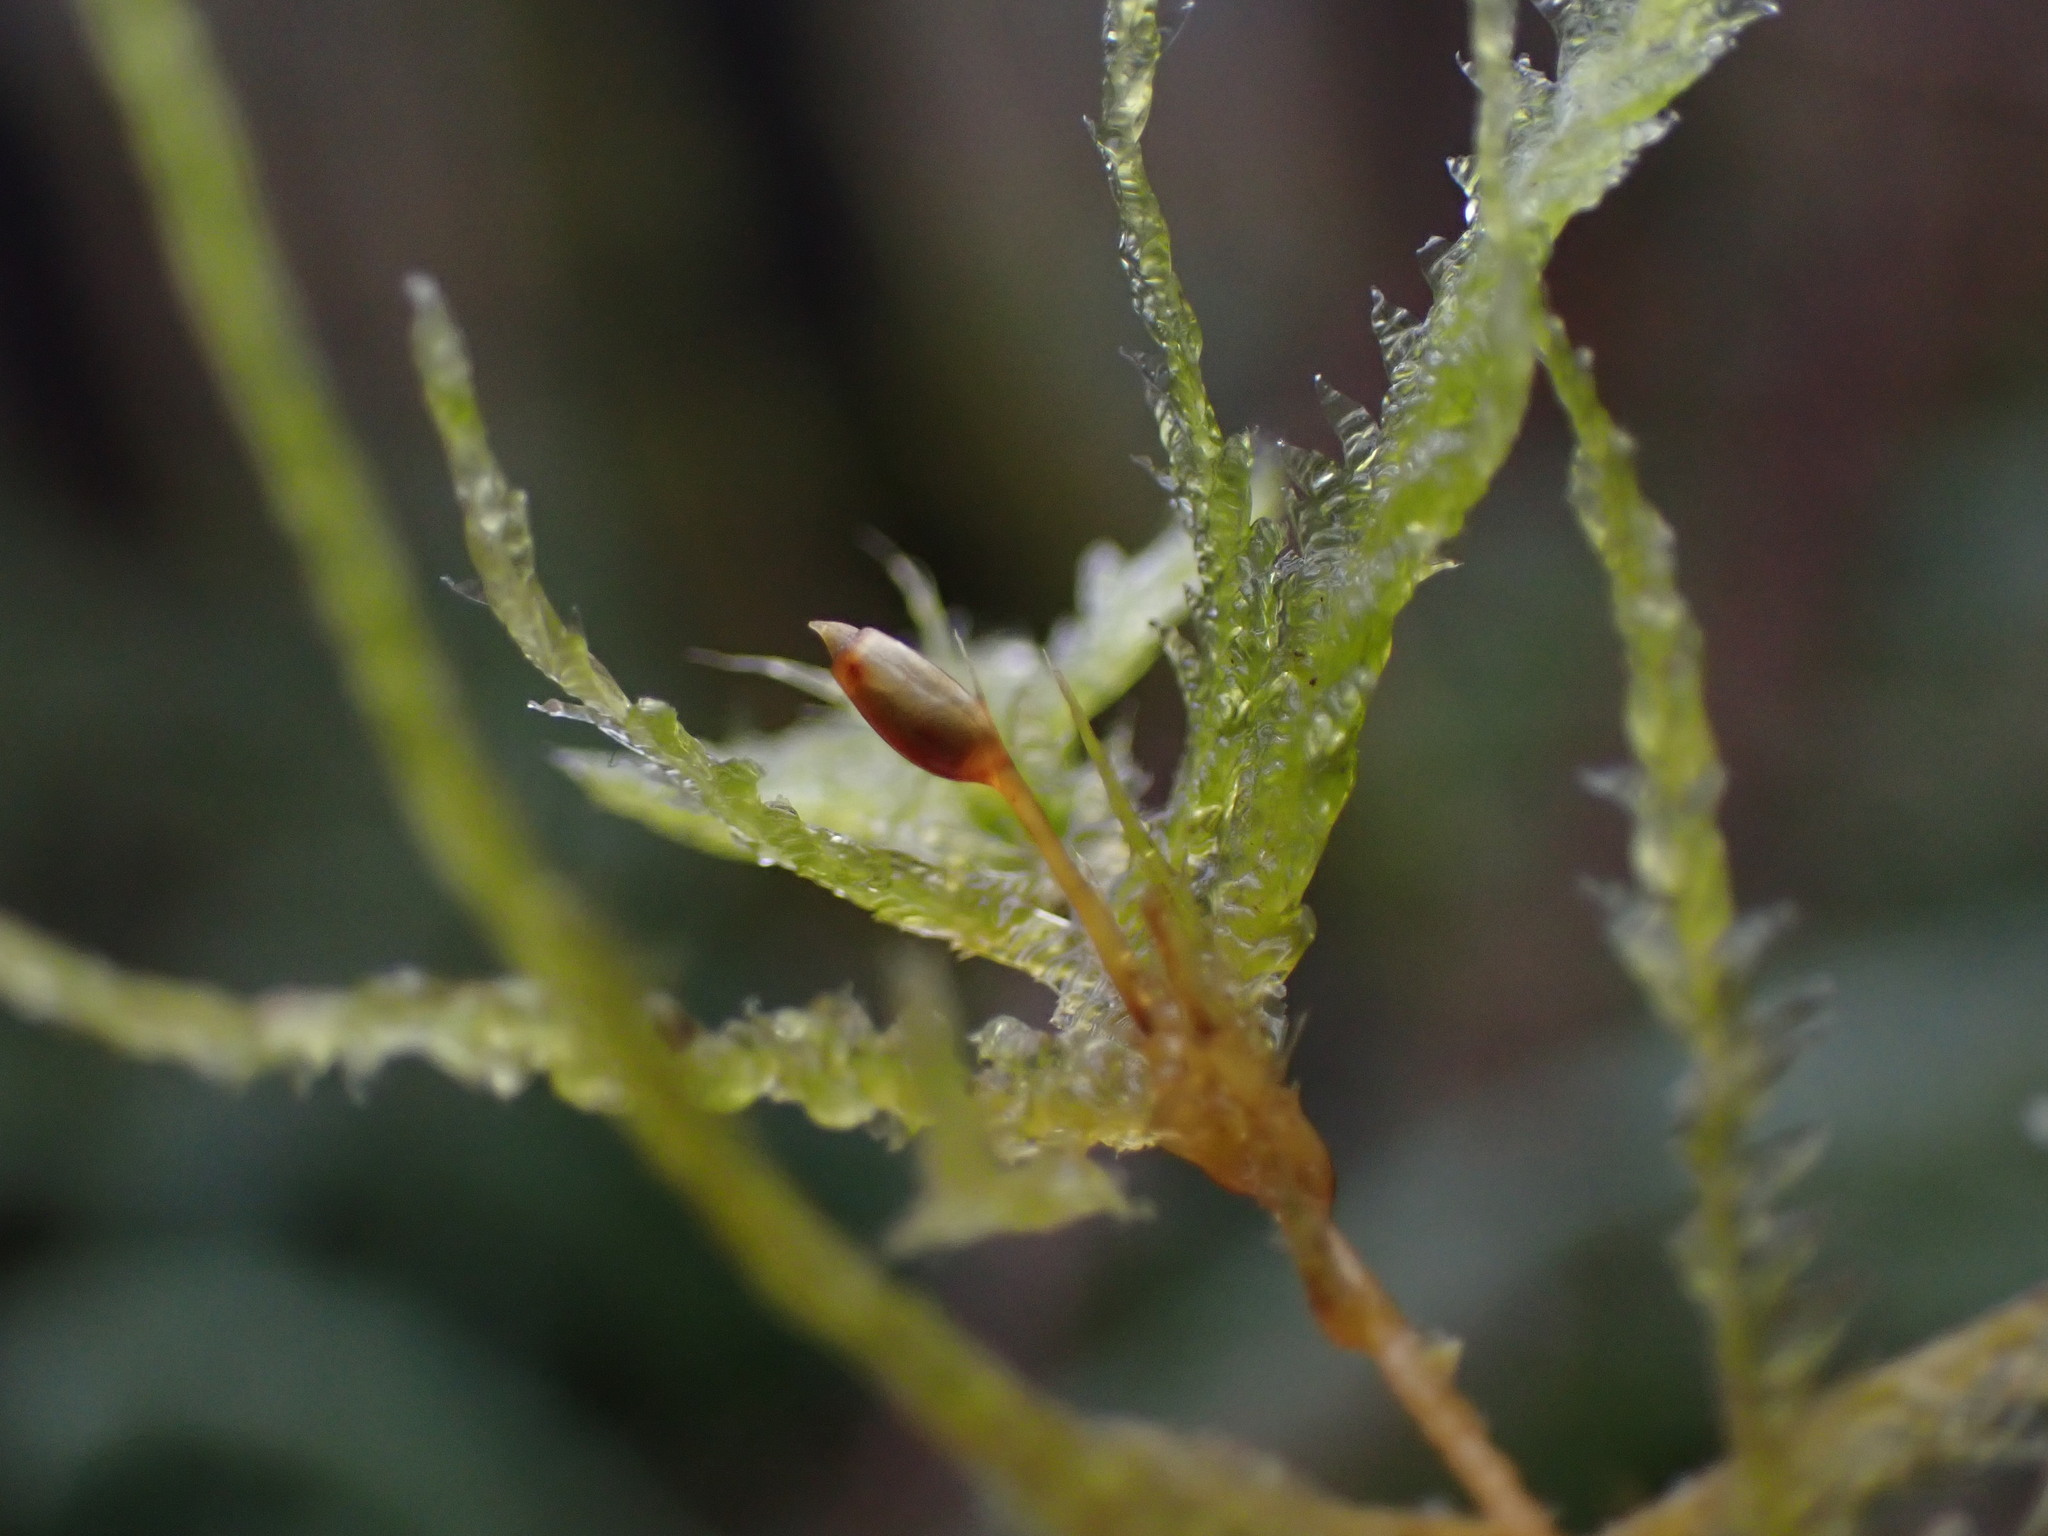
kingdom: Plantae
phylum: Bryophyta
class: Bryopsida
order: Hypnales
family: Neckeraceae
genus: Neckera
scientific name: Neckera douglasii
